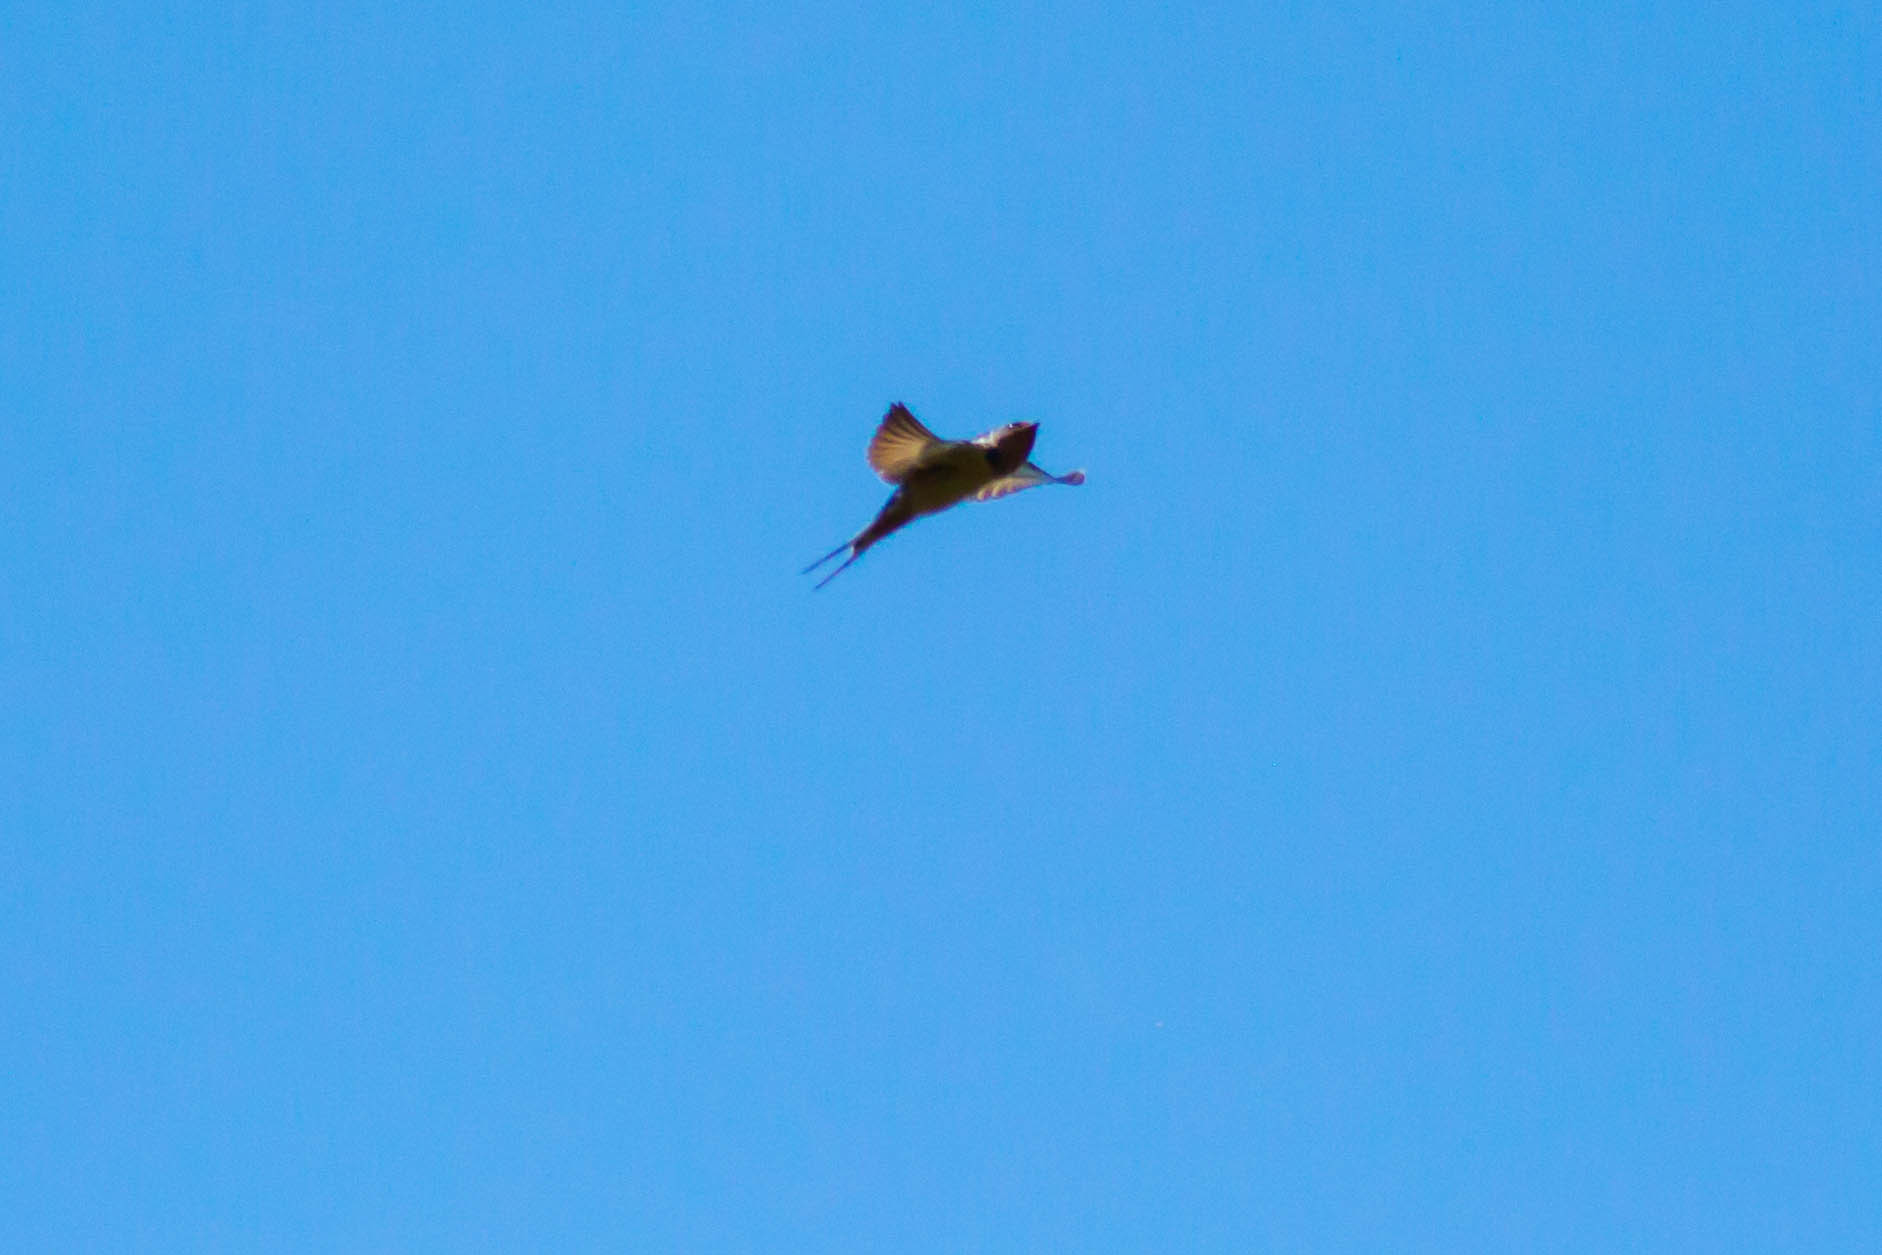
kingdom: Animalia
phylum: Chordata
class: Aves
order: Passeriformes
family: Hirundinidae
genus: Hirundo
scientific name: Hirundo rustica
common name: Barn swallow
